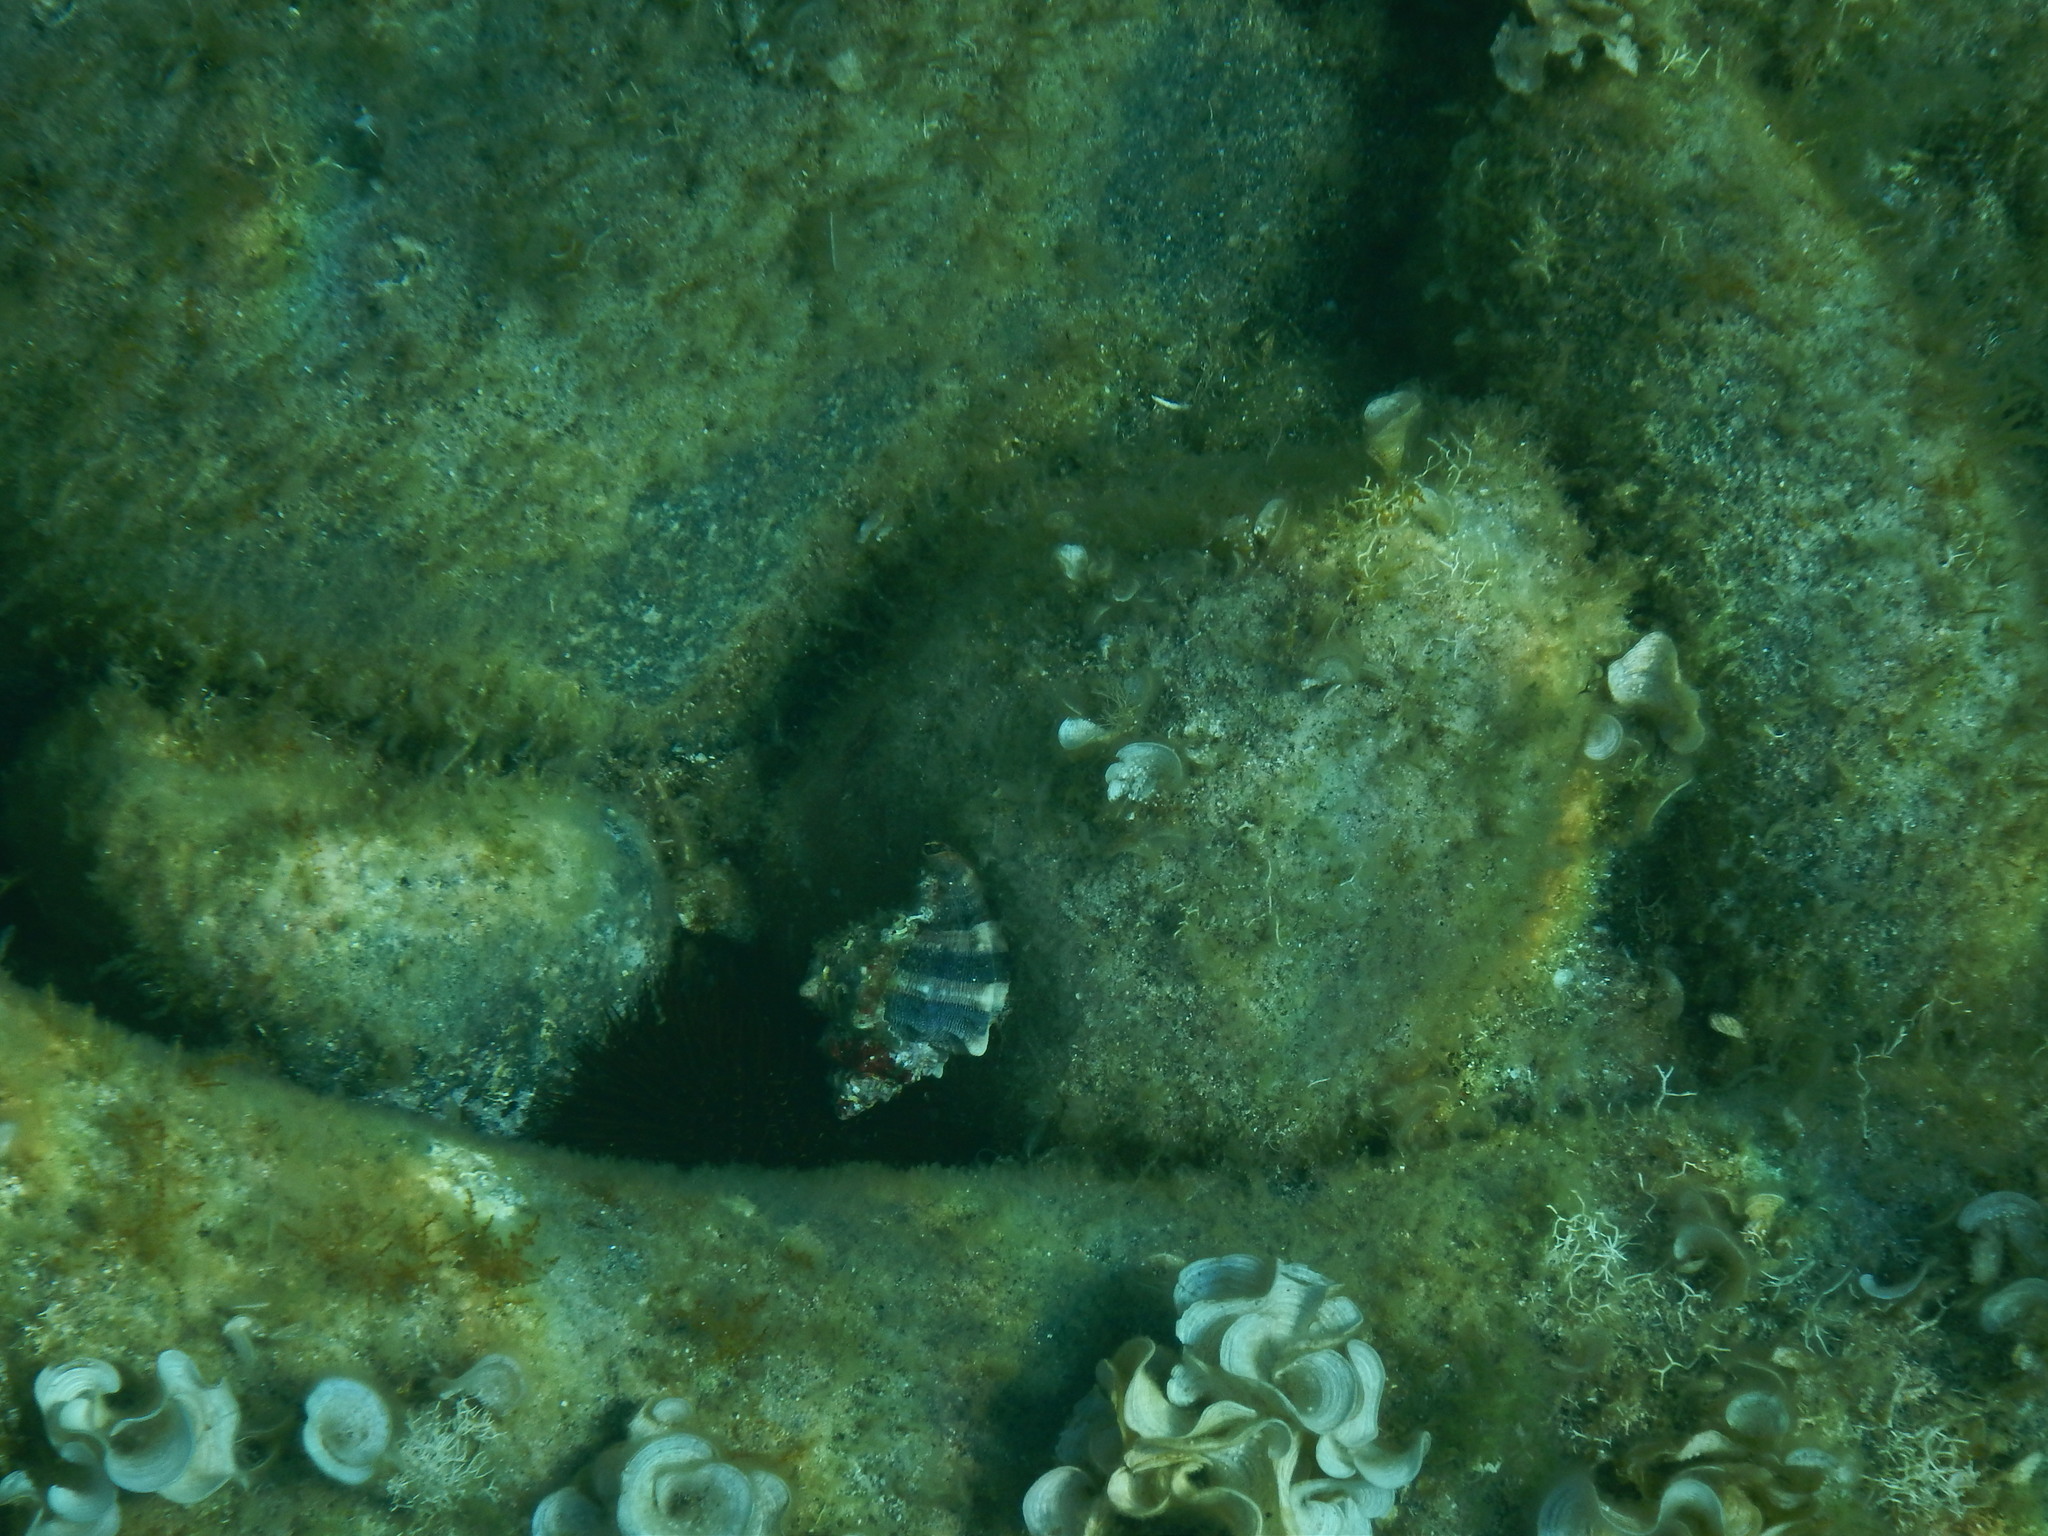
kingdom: Animalia
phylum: Mollusca
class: Gastropoda
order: Neogastropoda
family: Muricidae
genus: Hexaplex
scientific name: Hexaplex trunculus
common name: Banded dye-murex
